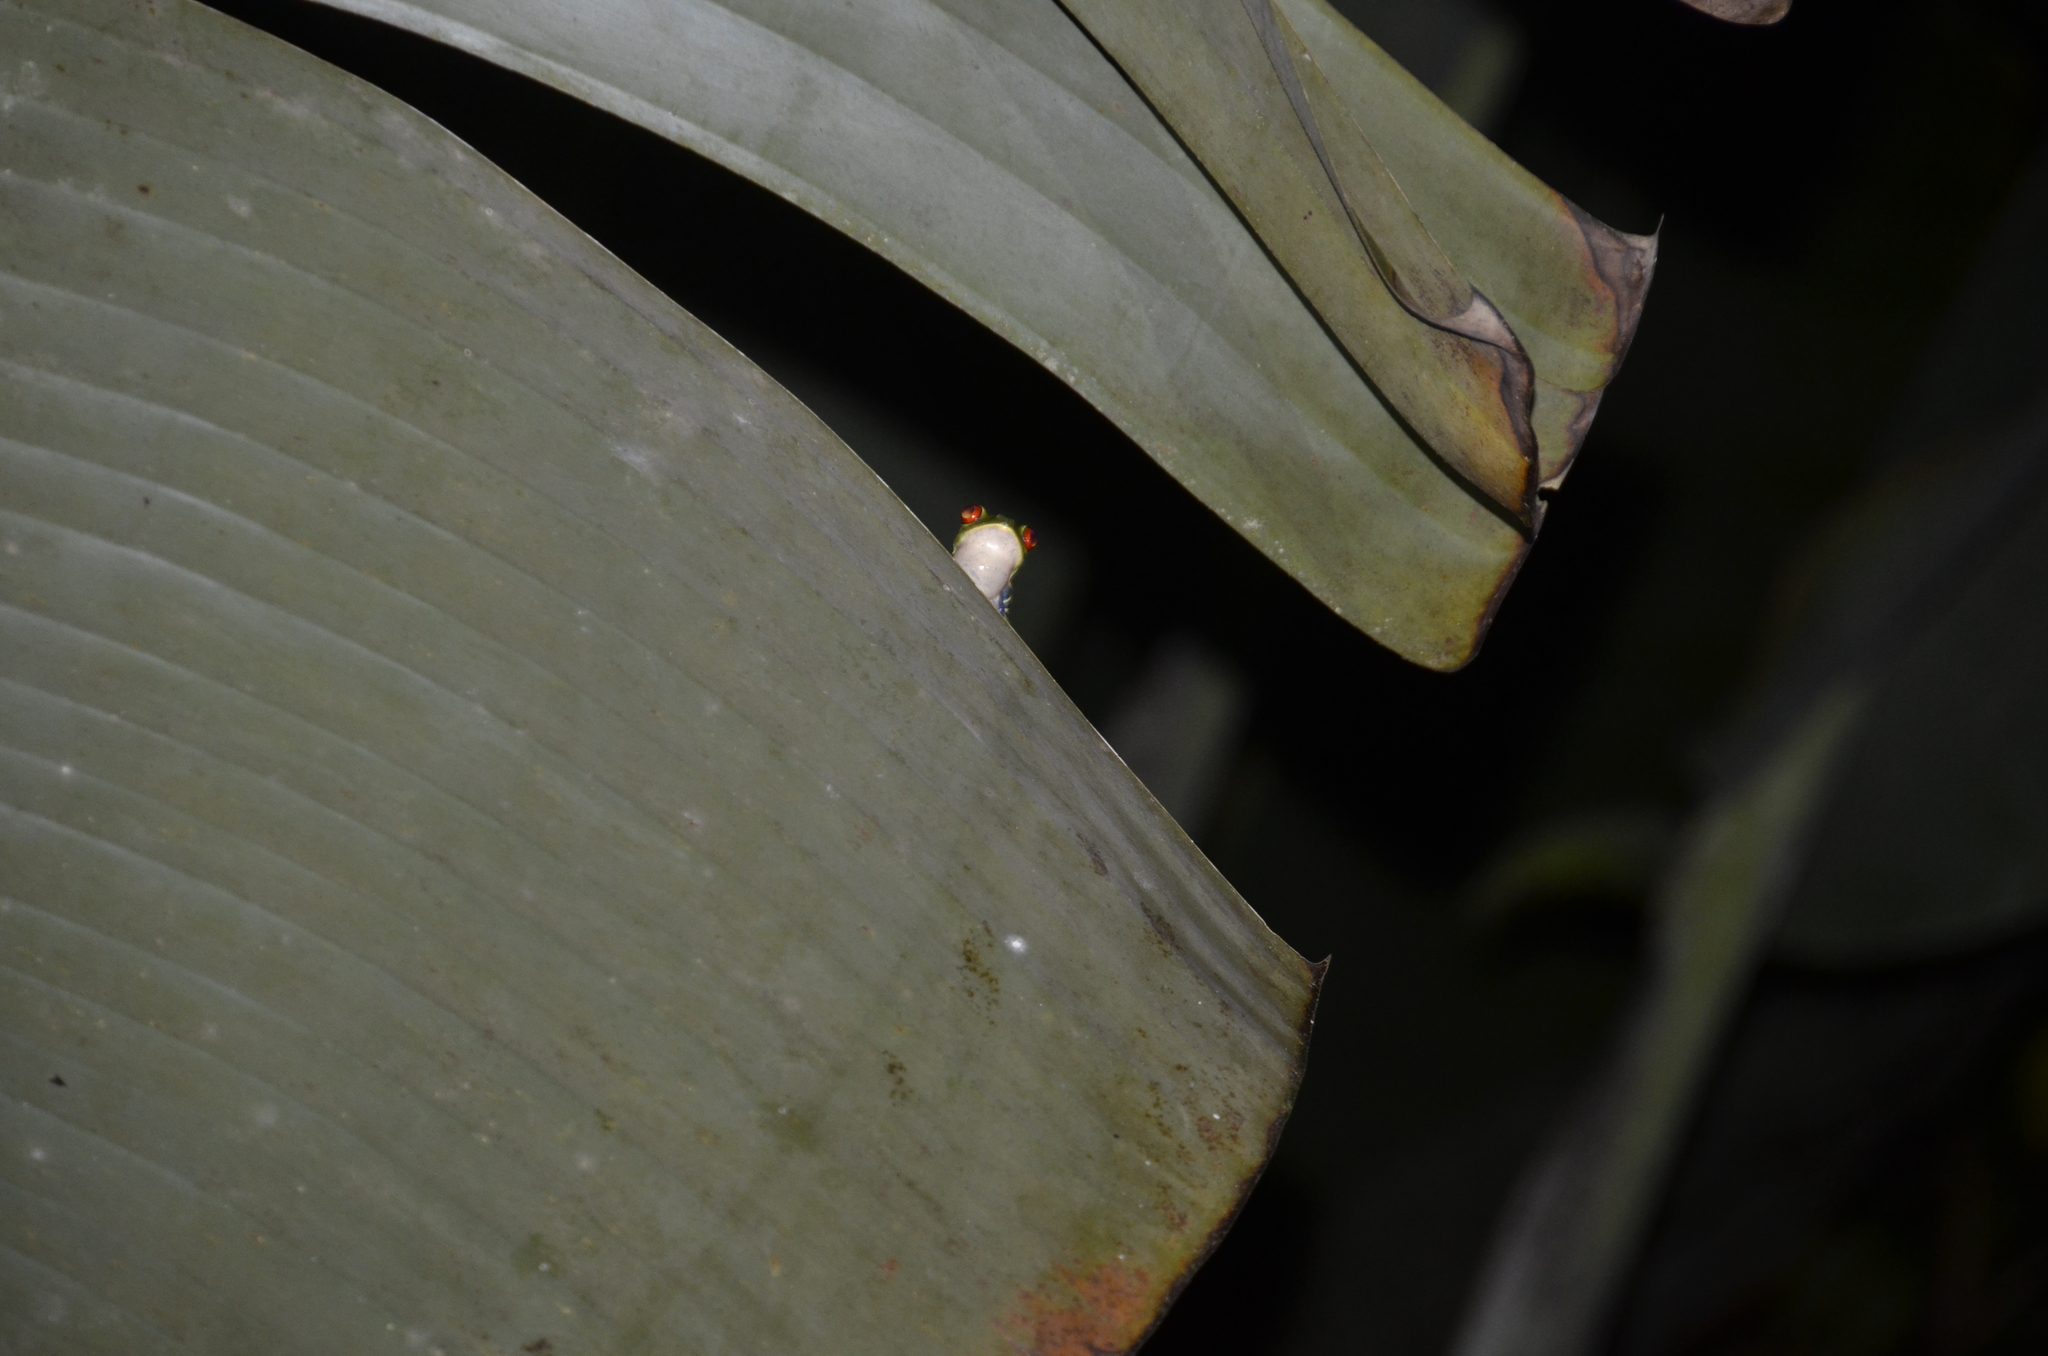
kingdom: Animalia
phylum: Chordata
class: Amphibia
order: Anura
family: Phyllomedusidae
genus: Agalychnis
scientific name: Agalychnis callidryas
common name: Red-eyed treefrog
